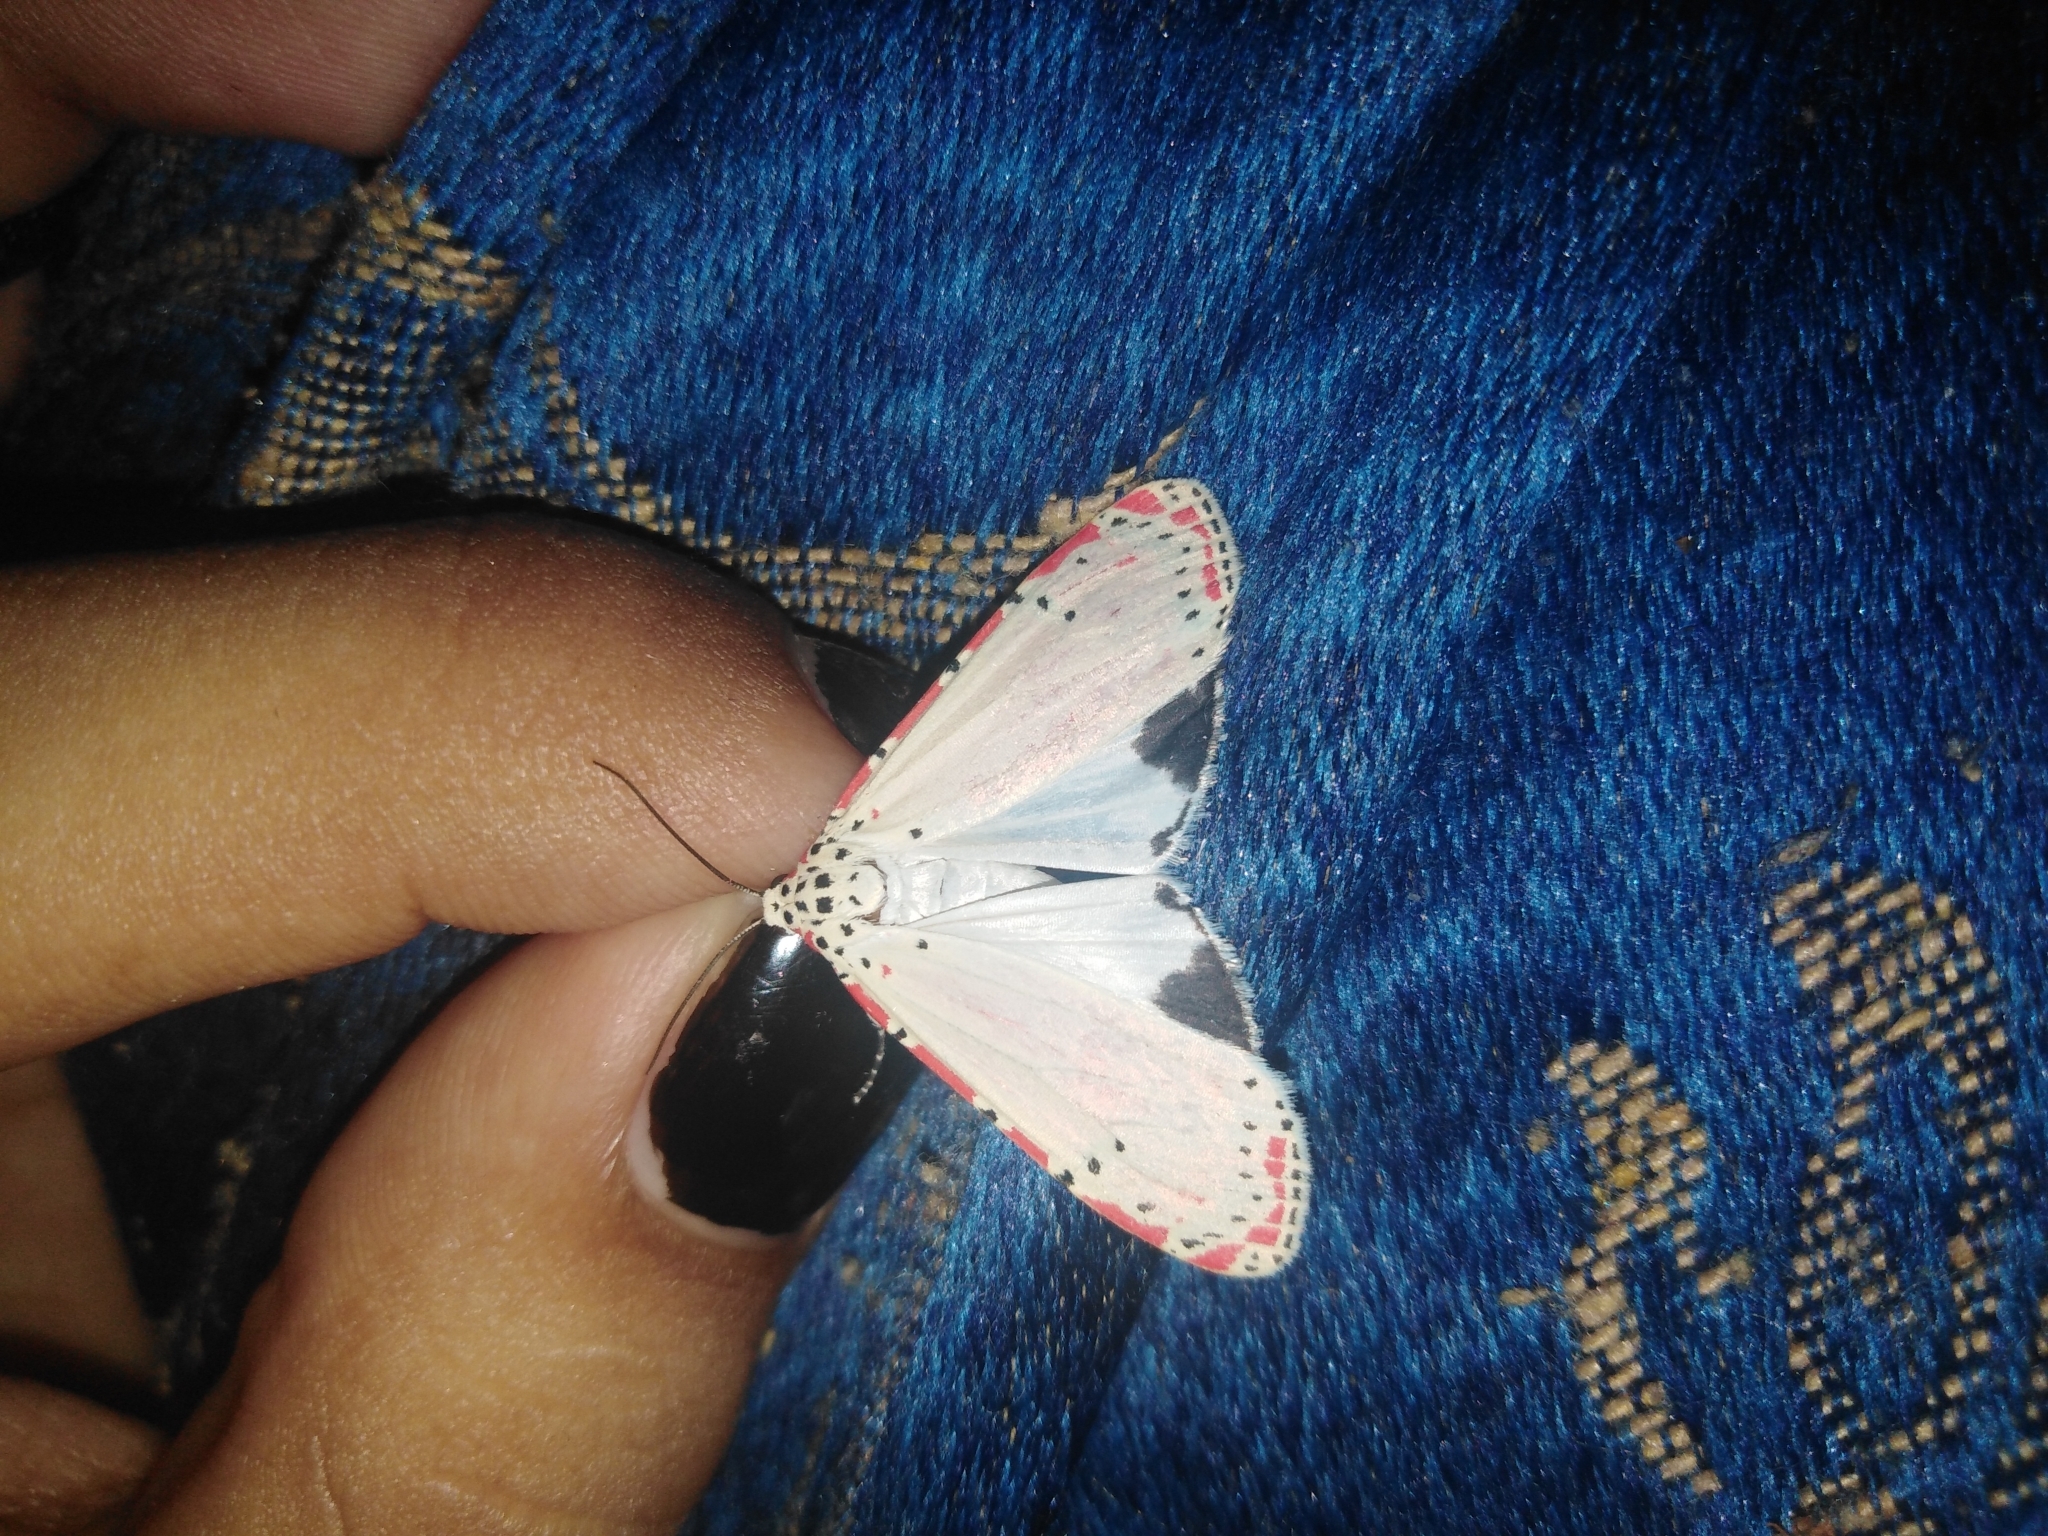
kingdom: Animalia
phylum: Arthropoda
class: Insecta
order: Lepidoptera
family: Erebidae
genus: Utetheisa
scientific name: Utetheisa ornatrix
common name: Beautiful utetheisa
